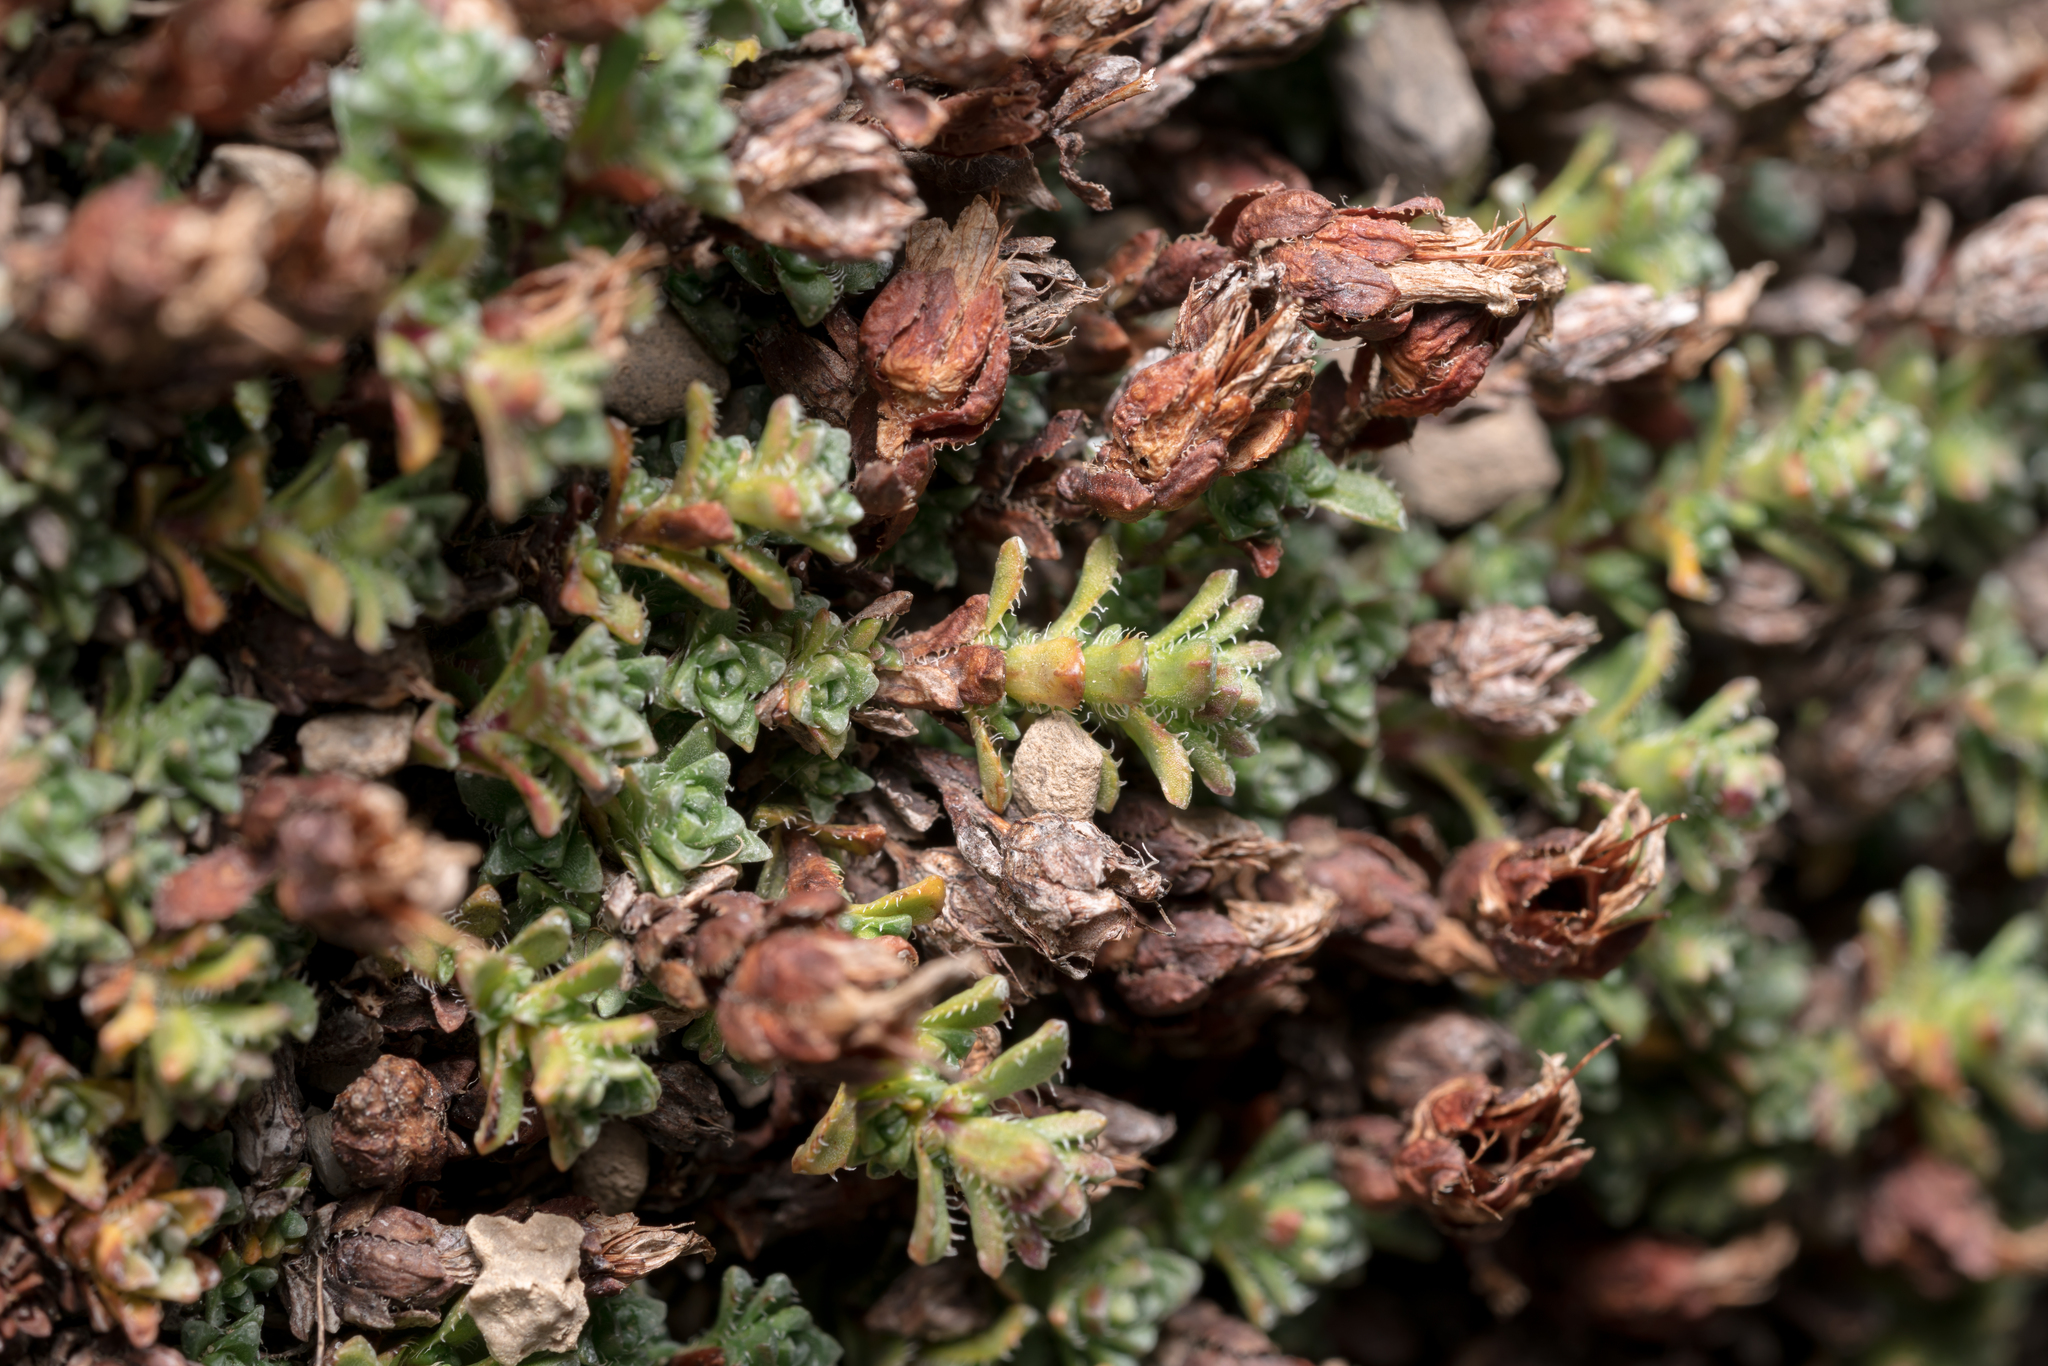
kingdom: Plantae
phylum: Tracheophyta
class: Magnoliopsida
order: Saxifragales
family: Saxifragaceae
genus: Saxifraga
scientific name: Saxifraga oppositifolia
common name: Purple saxifrage
